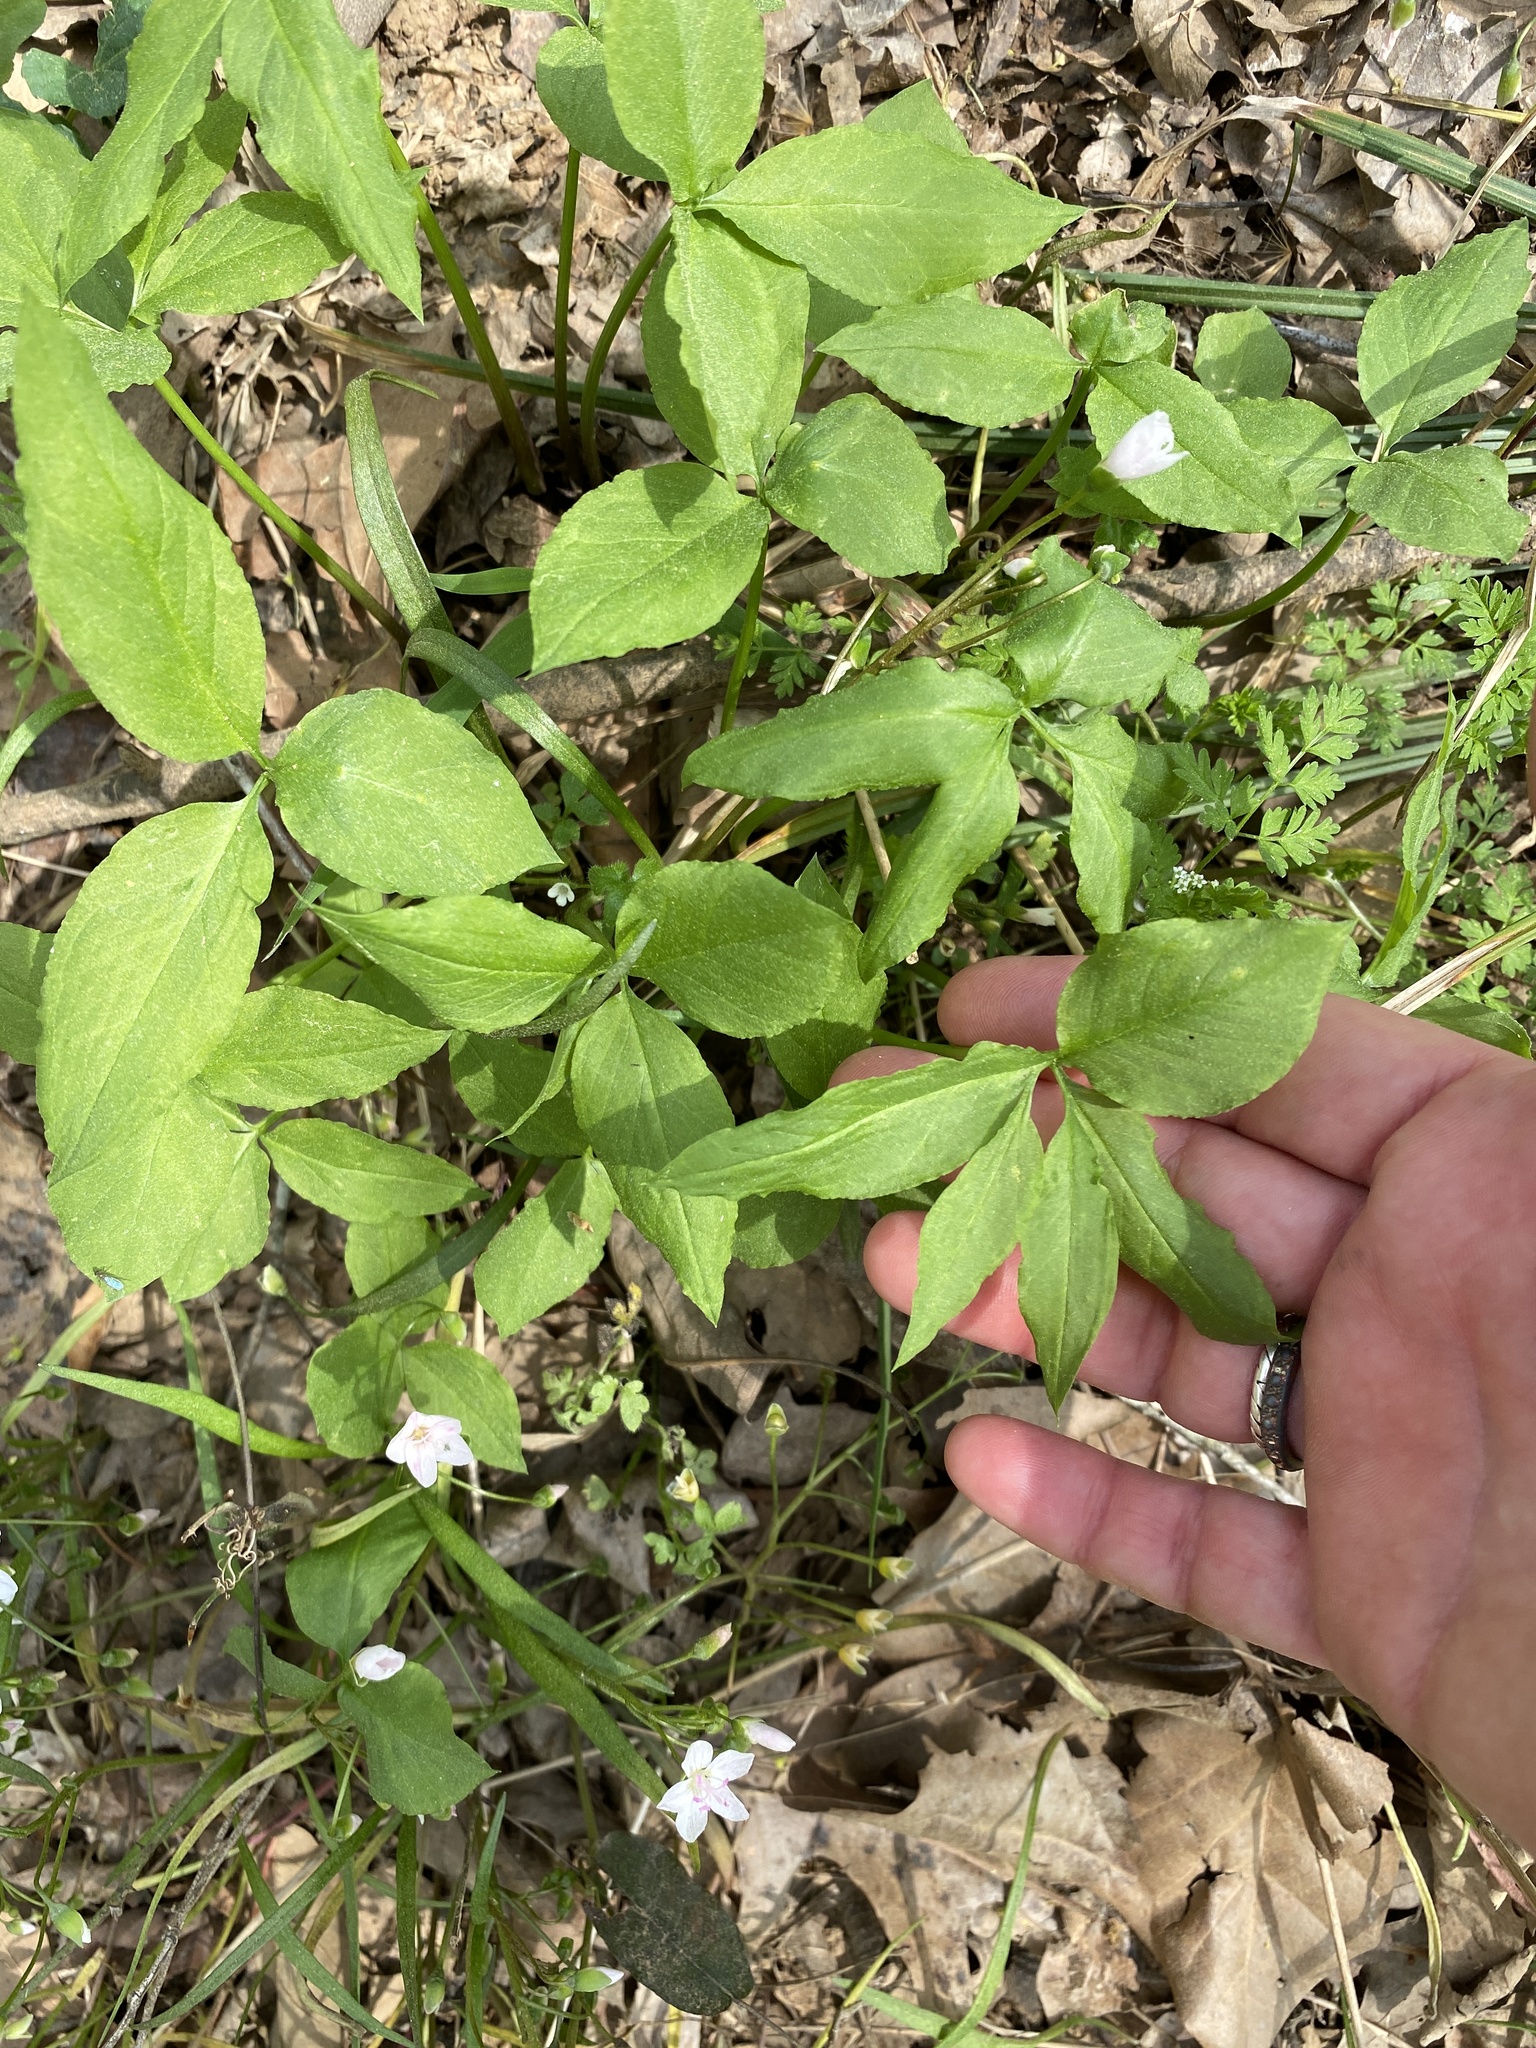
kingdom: Plantae
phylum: Tracheophyta
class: Liliopsida
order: Alismatales
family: Araceae
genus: Arisaema
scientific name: Arisaema dracontium
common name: Dragon-arum
